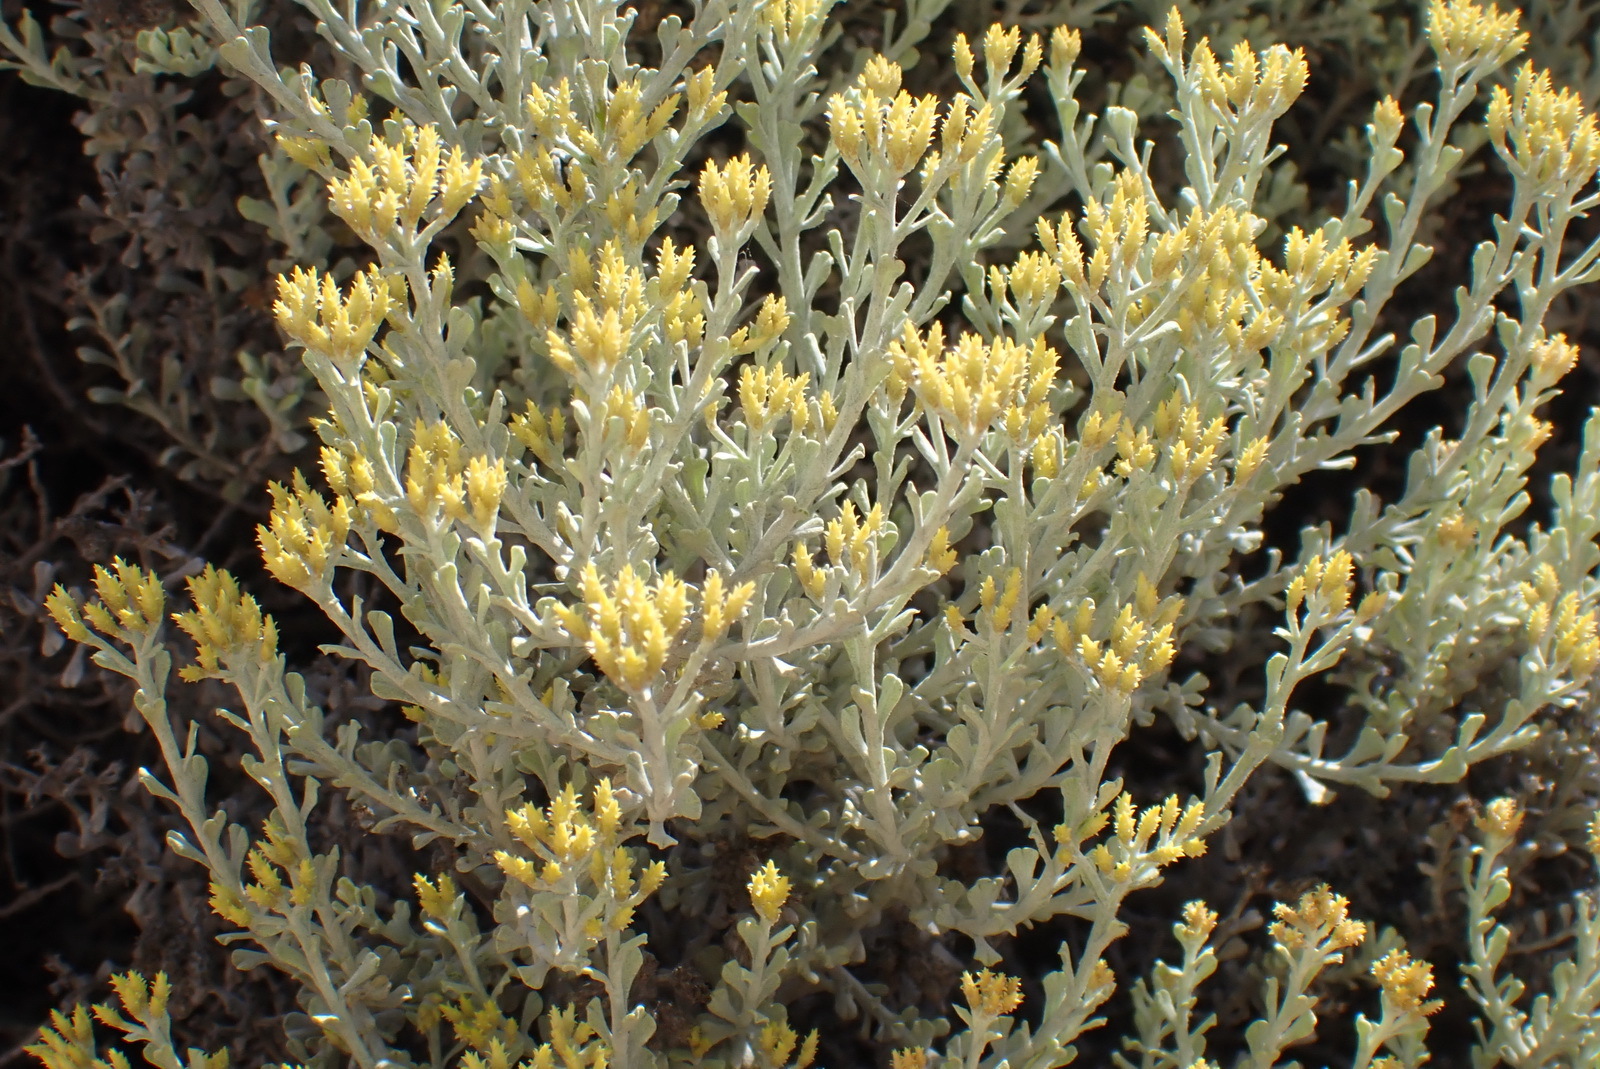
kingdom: Plantae
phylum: Tracheophyta
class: Magnoliopsida
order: Asterales
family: Asteraceae
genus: Helichrysum
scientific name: Helichrysum excisum
